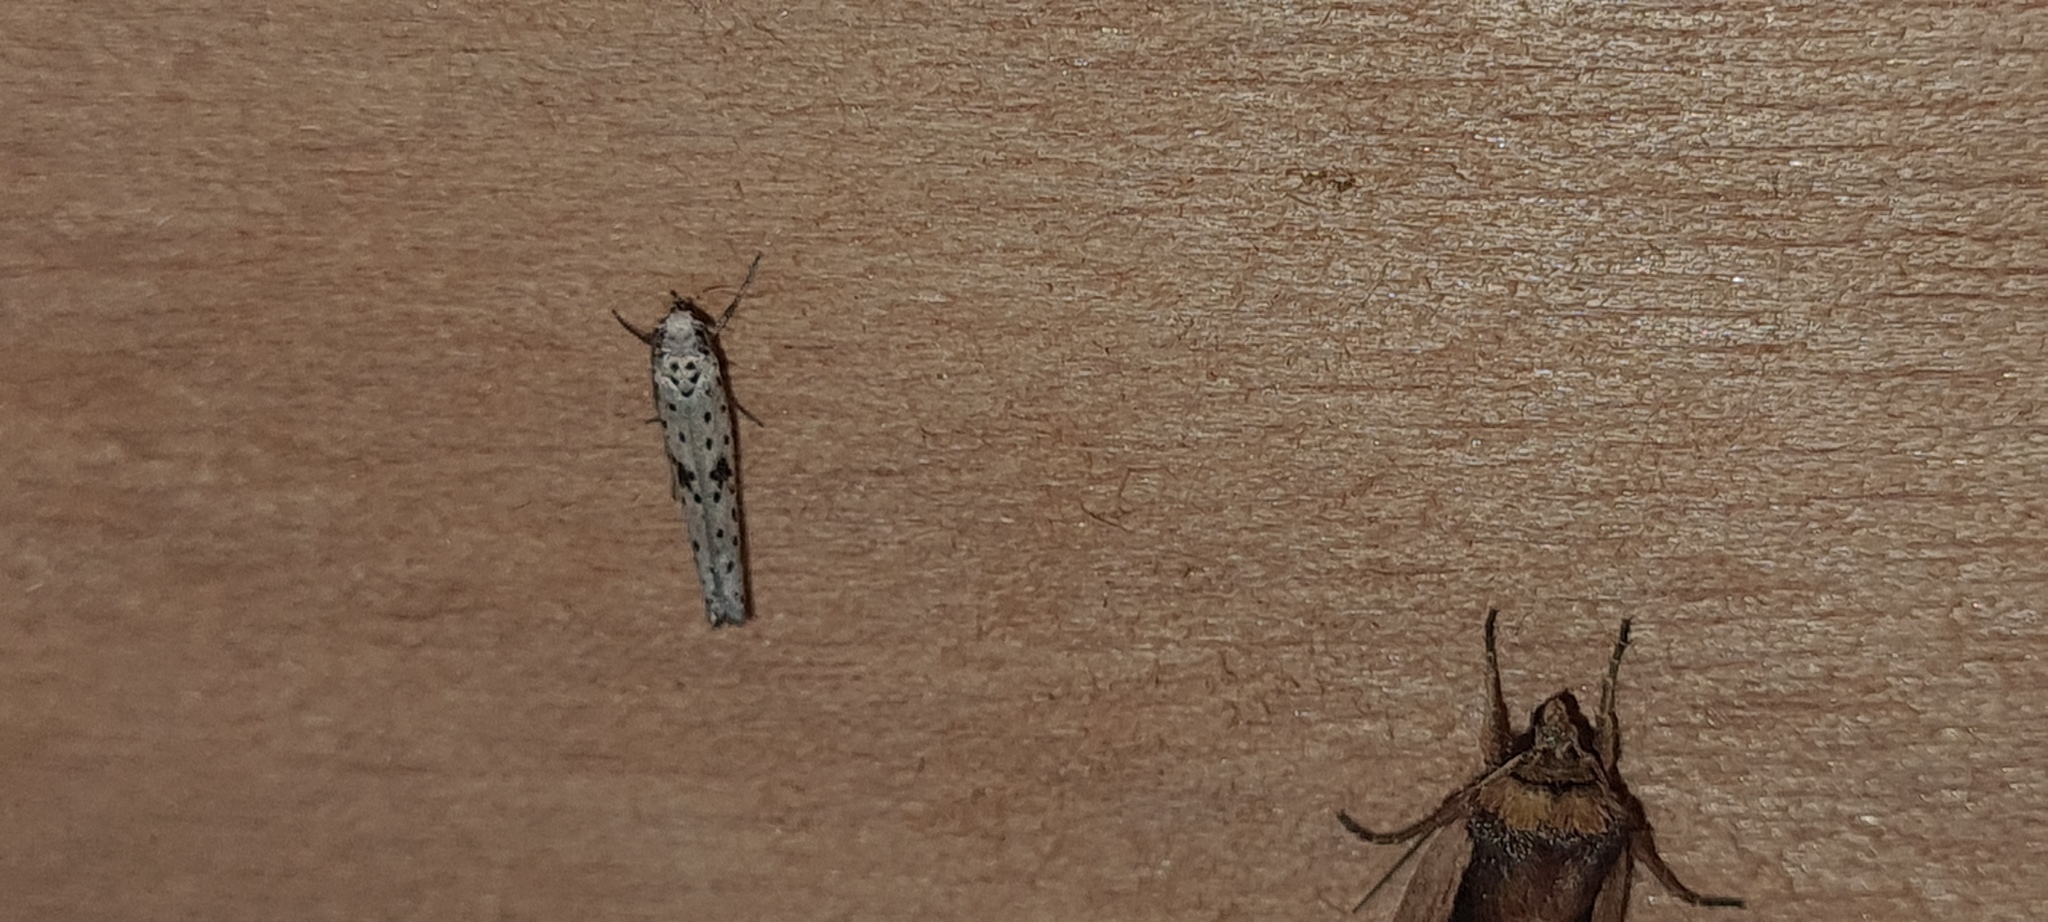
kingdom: Animalia
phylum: Arthropoda
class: Insecta
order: Lepidoptera
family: Yponomeutidae
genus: Yponomeuta
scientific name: Yponomeuta plumbella
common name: Black-tipped ermine
